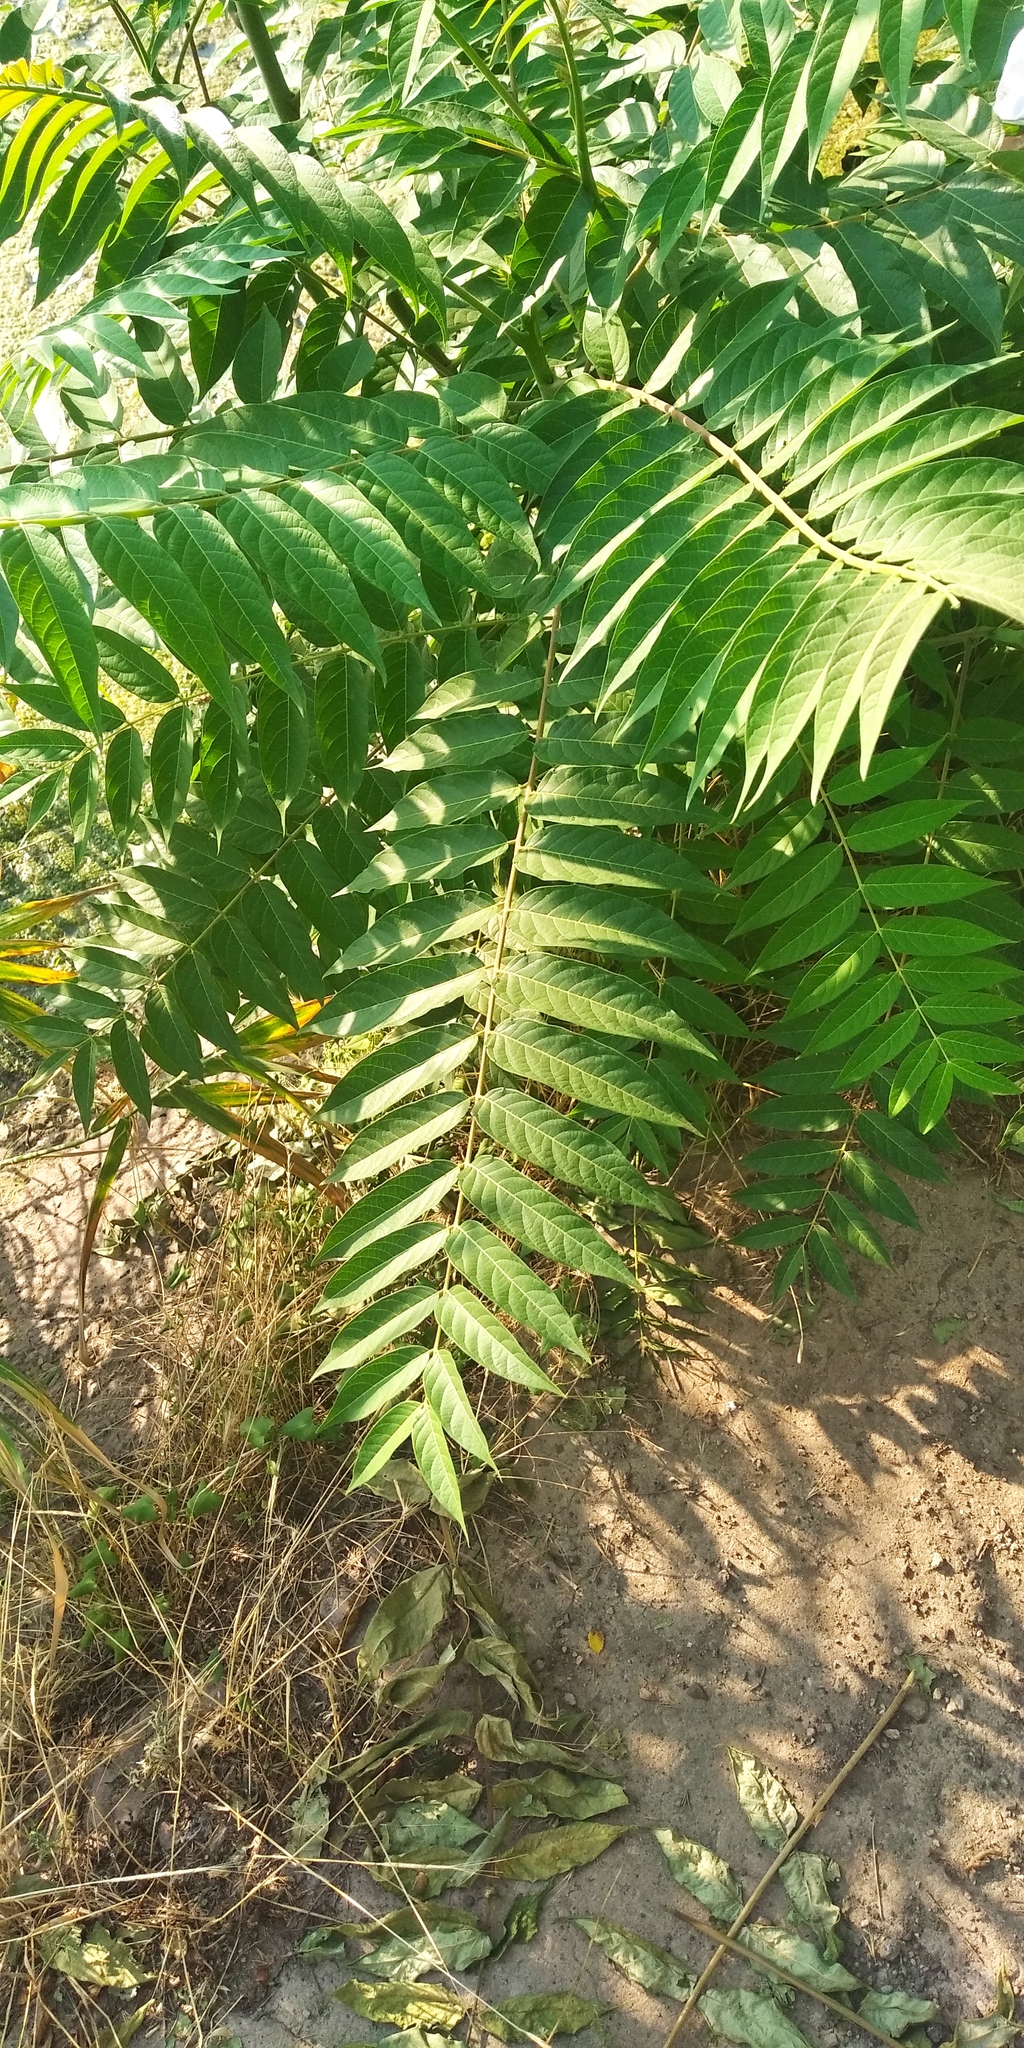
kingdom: Plantae
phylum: Tracheophyta
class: Magnoliopsida
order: Sapindales
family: Simaroubaceae
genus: Ailanthus
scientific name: Ailanthus altissima
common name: Tree-of-heaven
